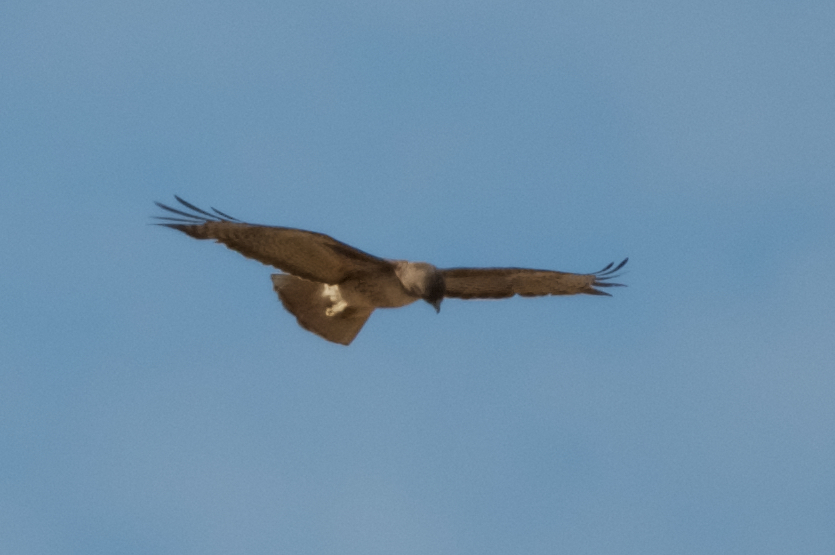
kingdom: Animalia
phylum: Chordata
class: Aves
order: Accipitriformes
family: Accipitridae
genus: Buteo
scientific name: Buteo jamaicensis
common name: Red-tailed hawk
